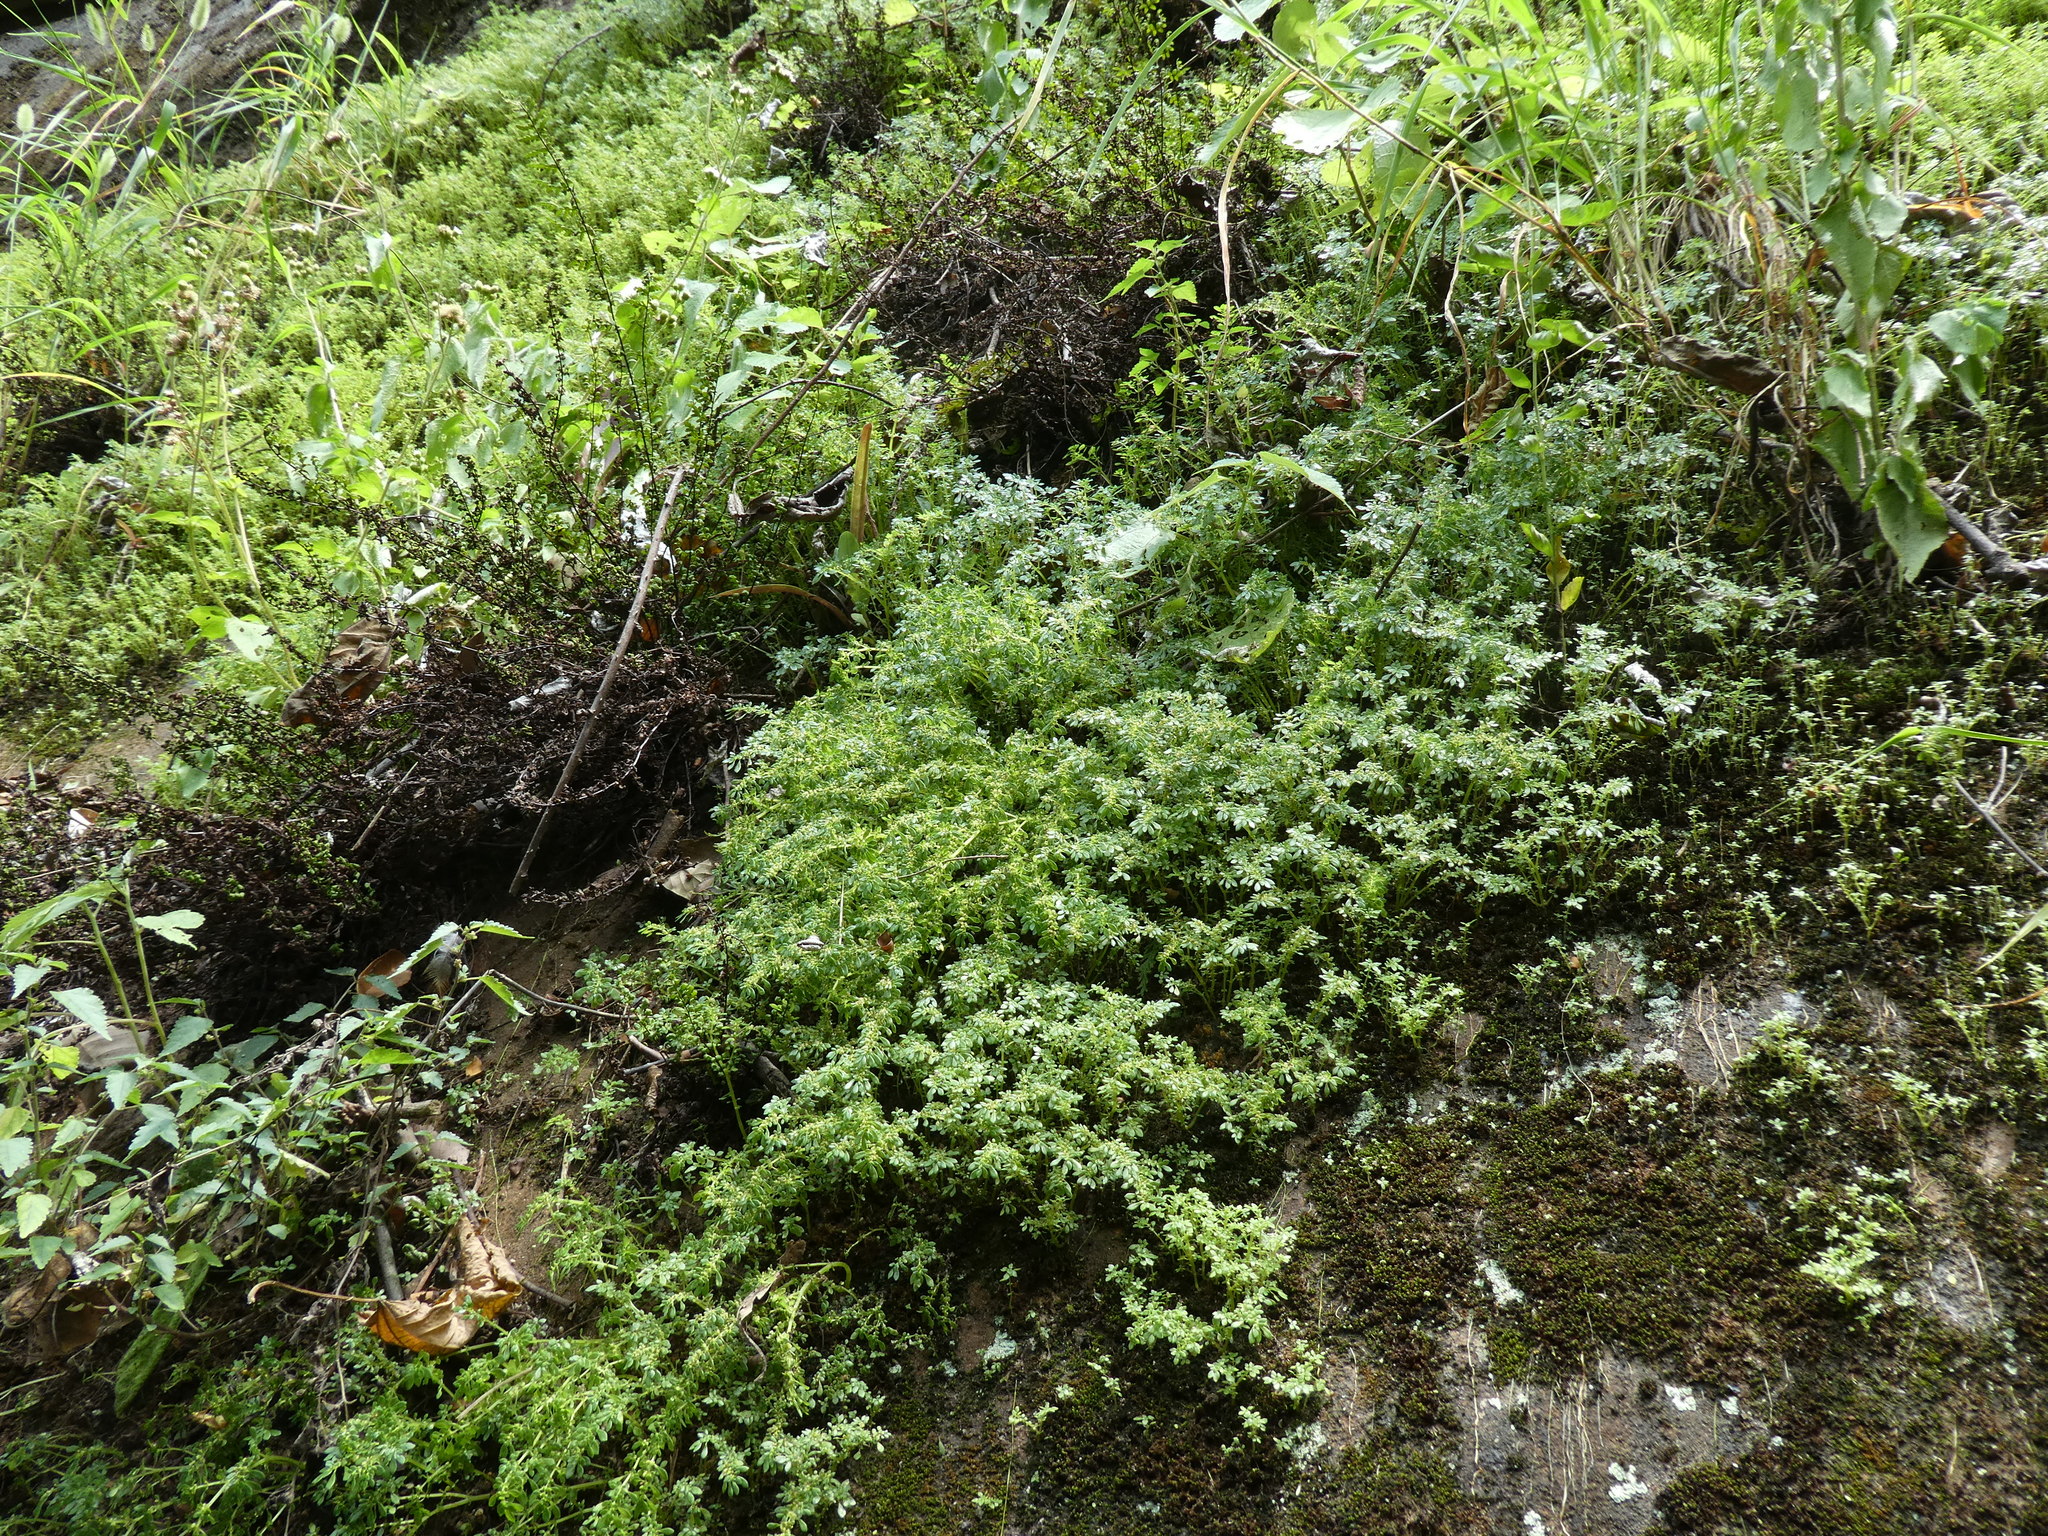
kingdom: Plantae
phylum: Tracheophyta
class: Magnoliopsida
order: Rosales
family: Urticaceae
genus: Pilea
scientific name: Pilea microphylla
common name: Artillery-plant
